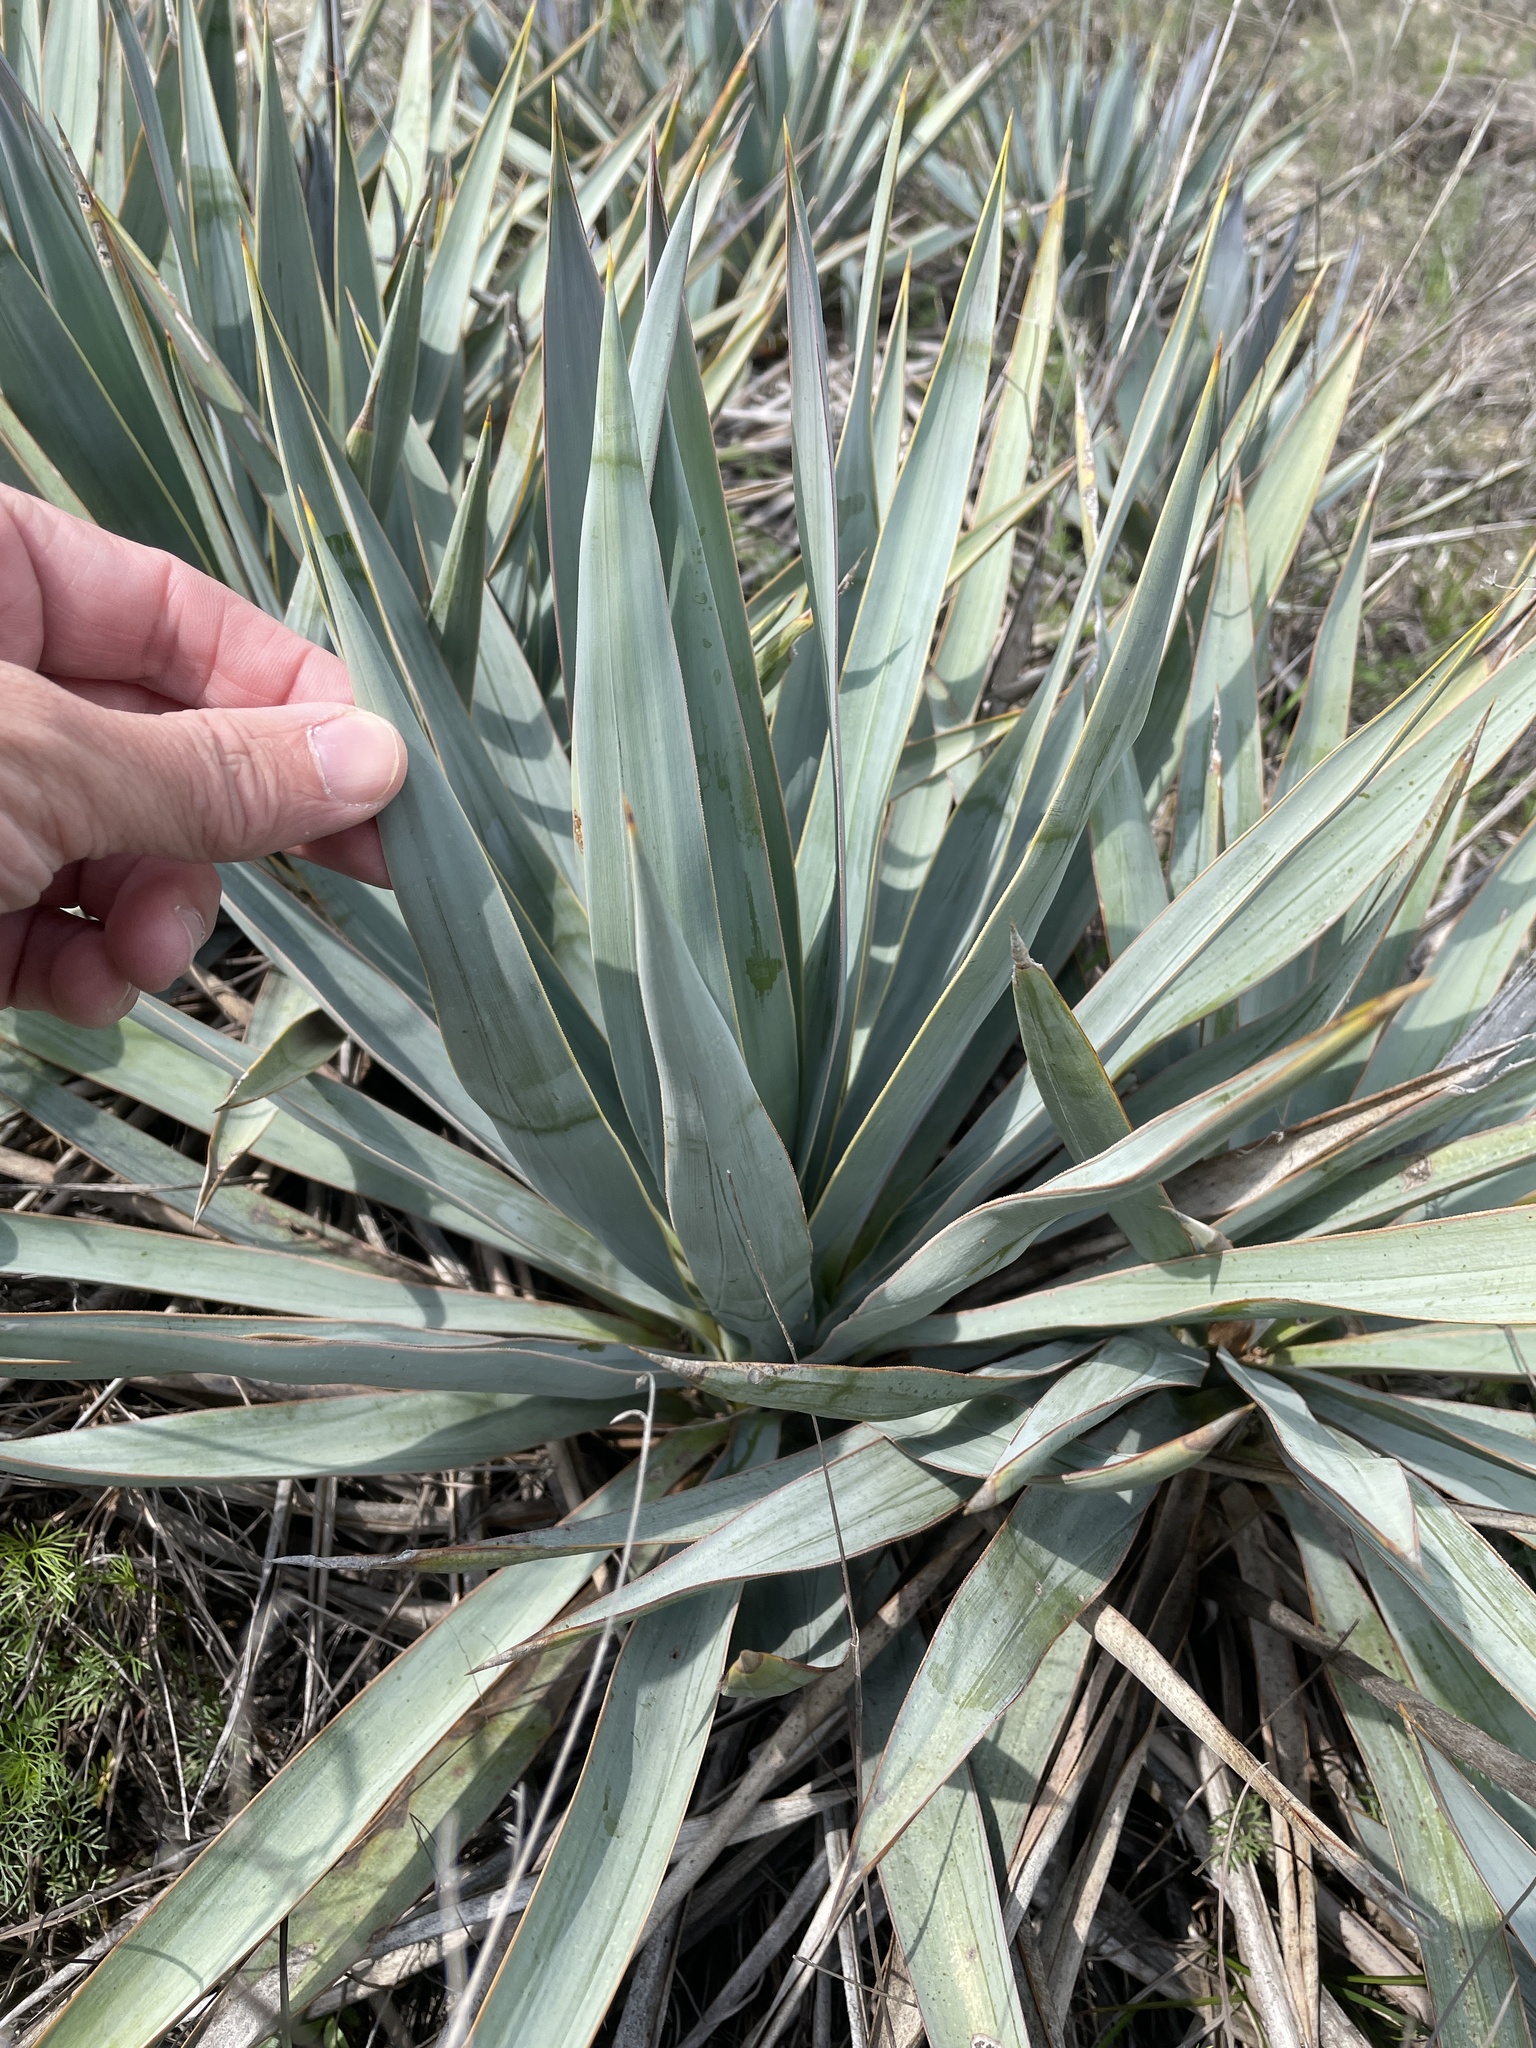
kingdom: Plantae
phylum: Tracheophyta
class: Liliopsida
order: Asparagales
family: Asparagaceae
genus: Yucca
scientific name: Yucca pallida
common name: Pale leaf yucca
